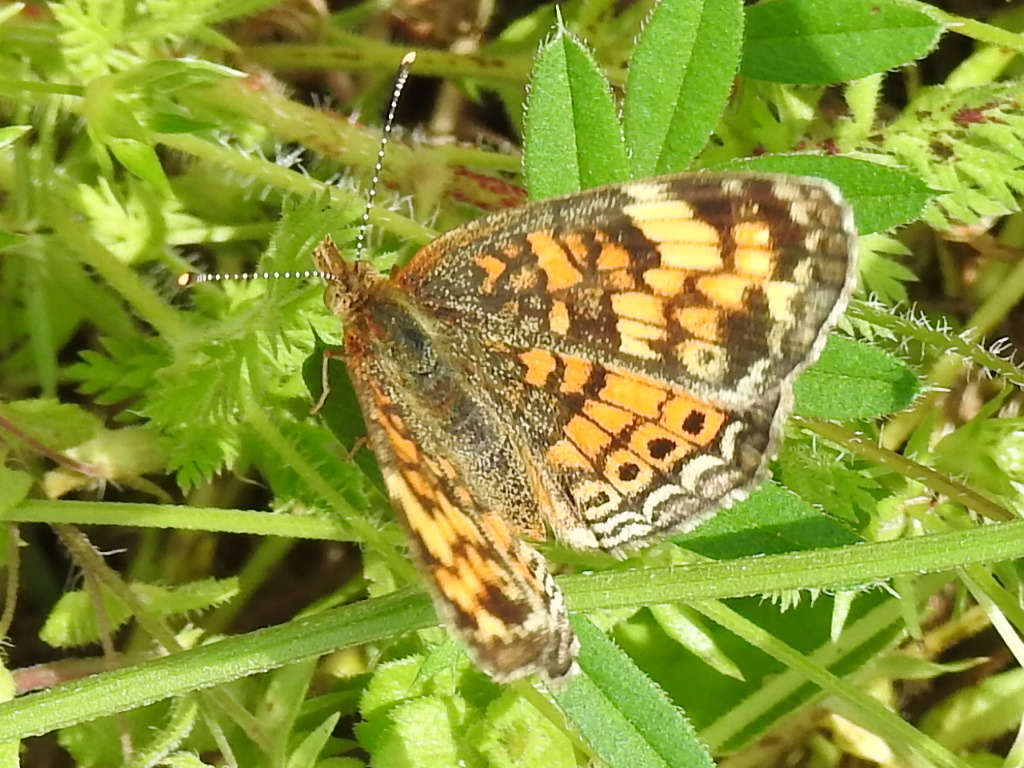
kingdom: Animalia
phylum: Arthropoda
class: Insecta
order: Lepidoptera
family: Nymphalidae
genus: Phyciodes
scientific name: Phyciodes tharos
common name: Pearl crescent
